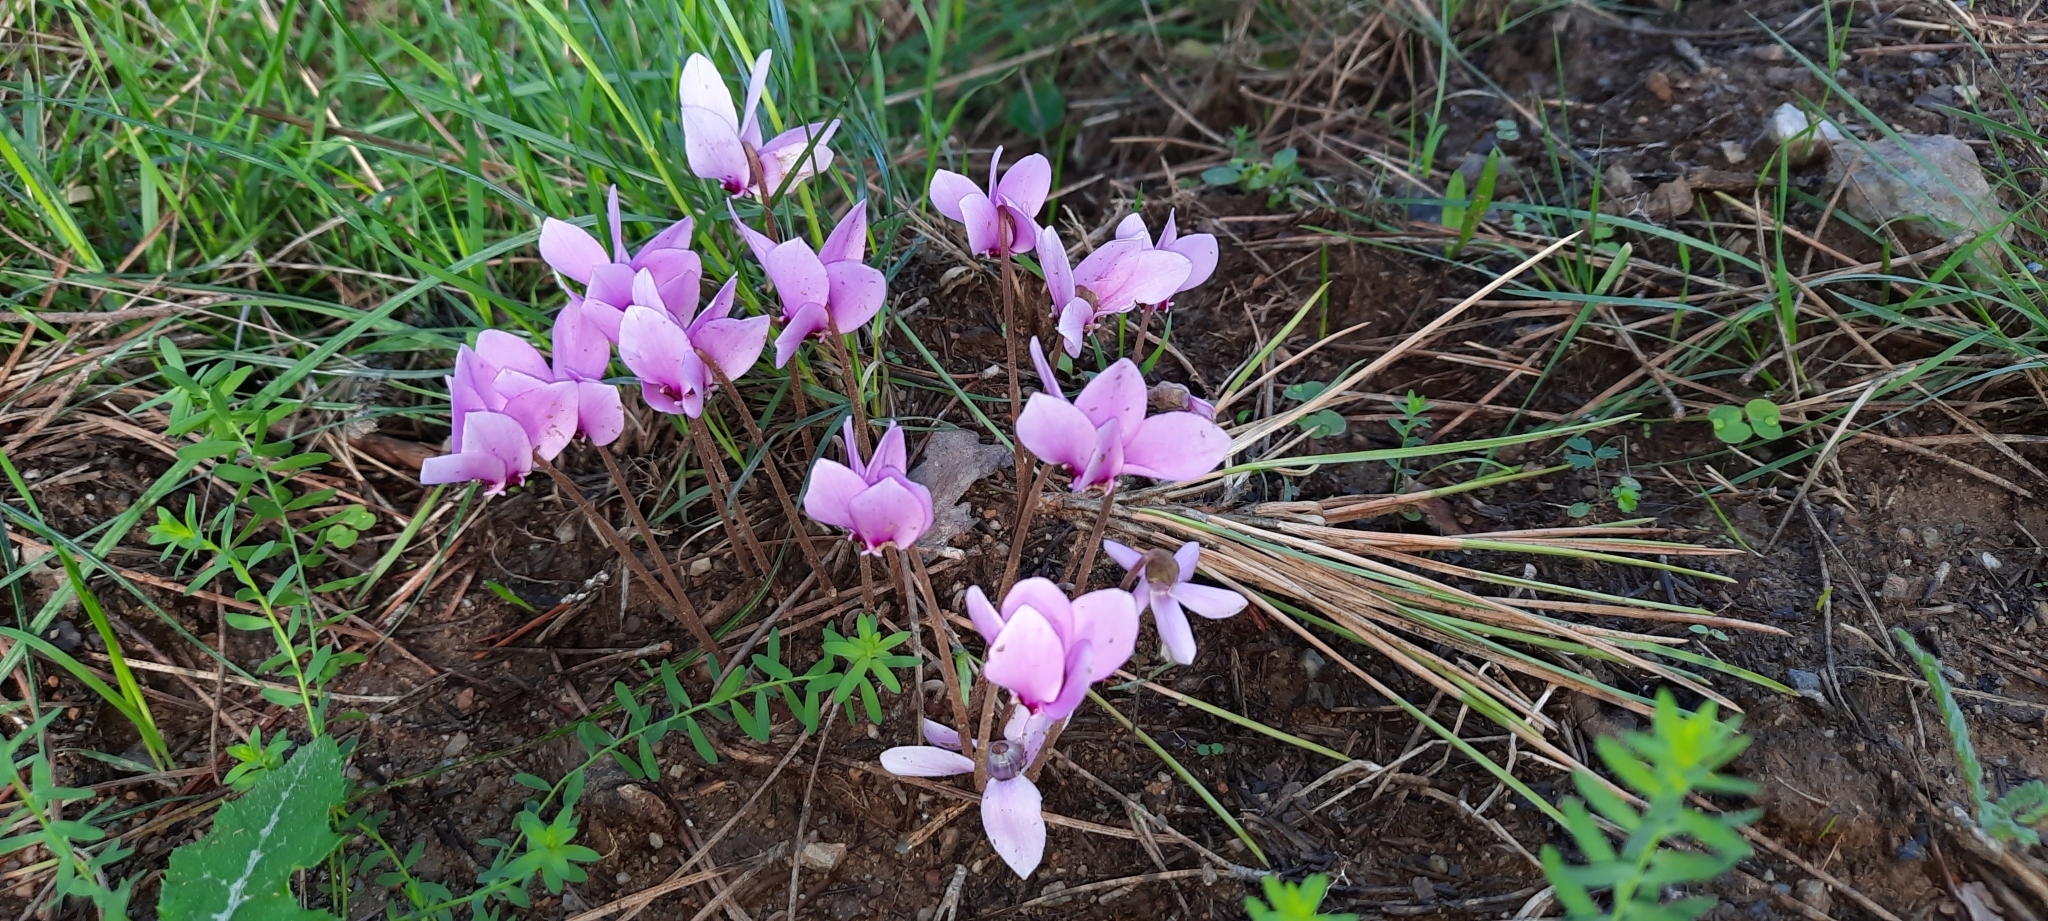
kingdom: Plantae
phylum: Tracheophyta
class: Magnoliopsida
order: Ericales
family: Primulaceae
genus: Cyclamen
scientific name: Cyclamen hederifolium
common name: Sowbread
